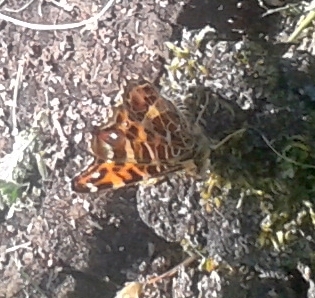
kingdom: Animalia
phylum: Arthropoda
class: Insecta
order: Lepidoptera
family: Nymphalidae
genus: Araschnia
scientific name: Araschnia levana
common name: Map butterfly
